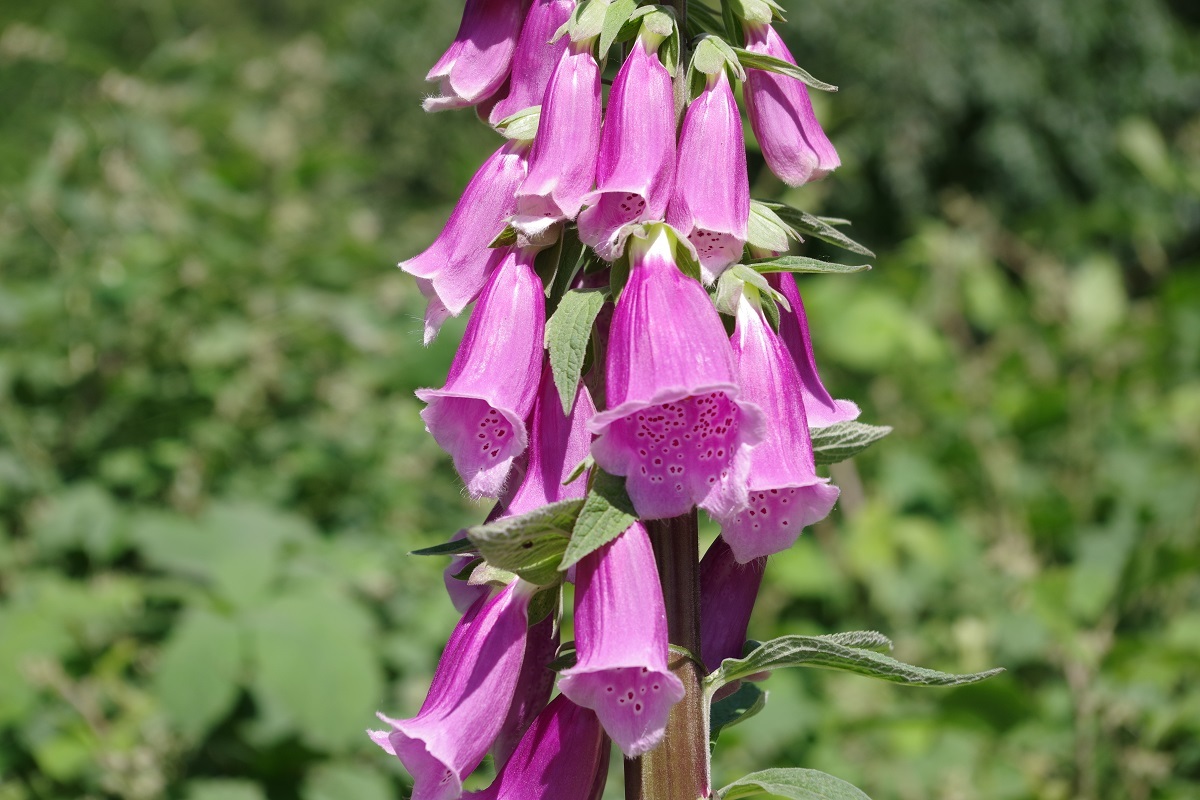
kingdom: Plantae
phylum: Tracheophyta
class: Magnoliopsida
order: Lamiales
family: Plantaginaceae
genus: Digitalis
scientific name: Digitalis purpurea
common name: Foxglove
